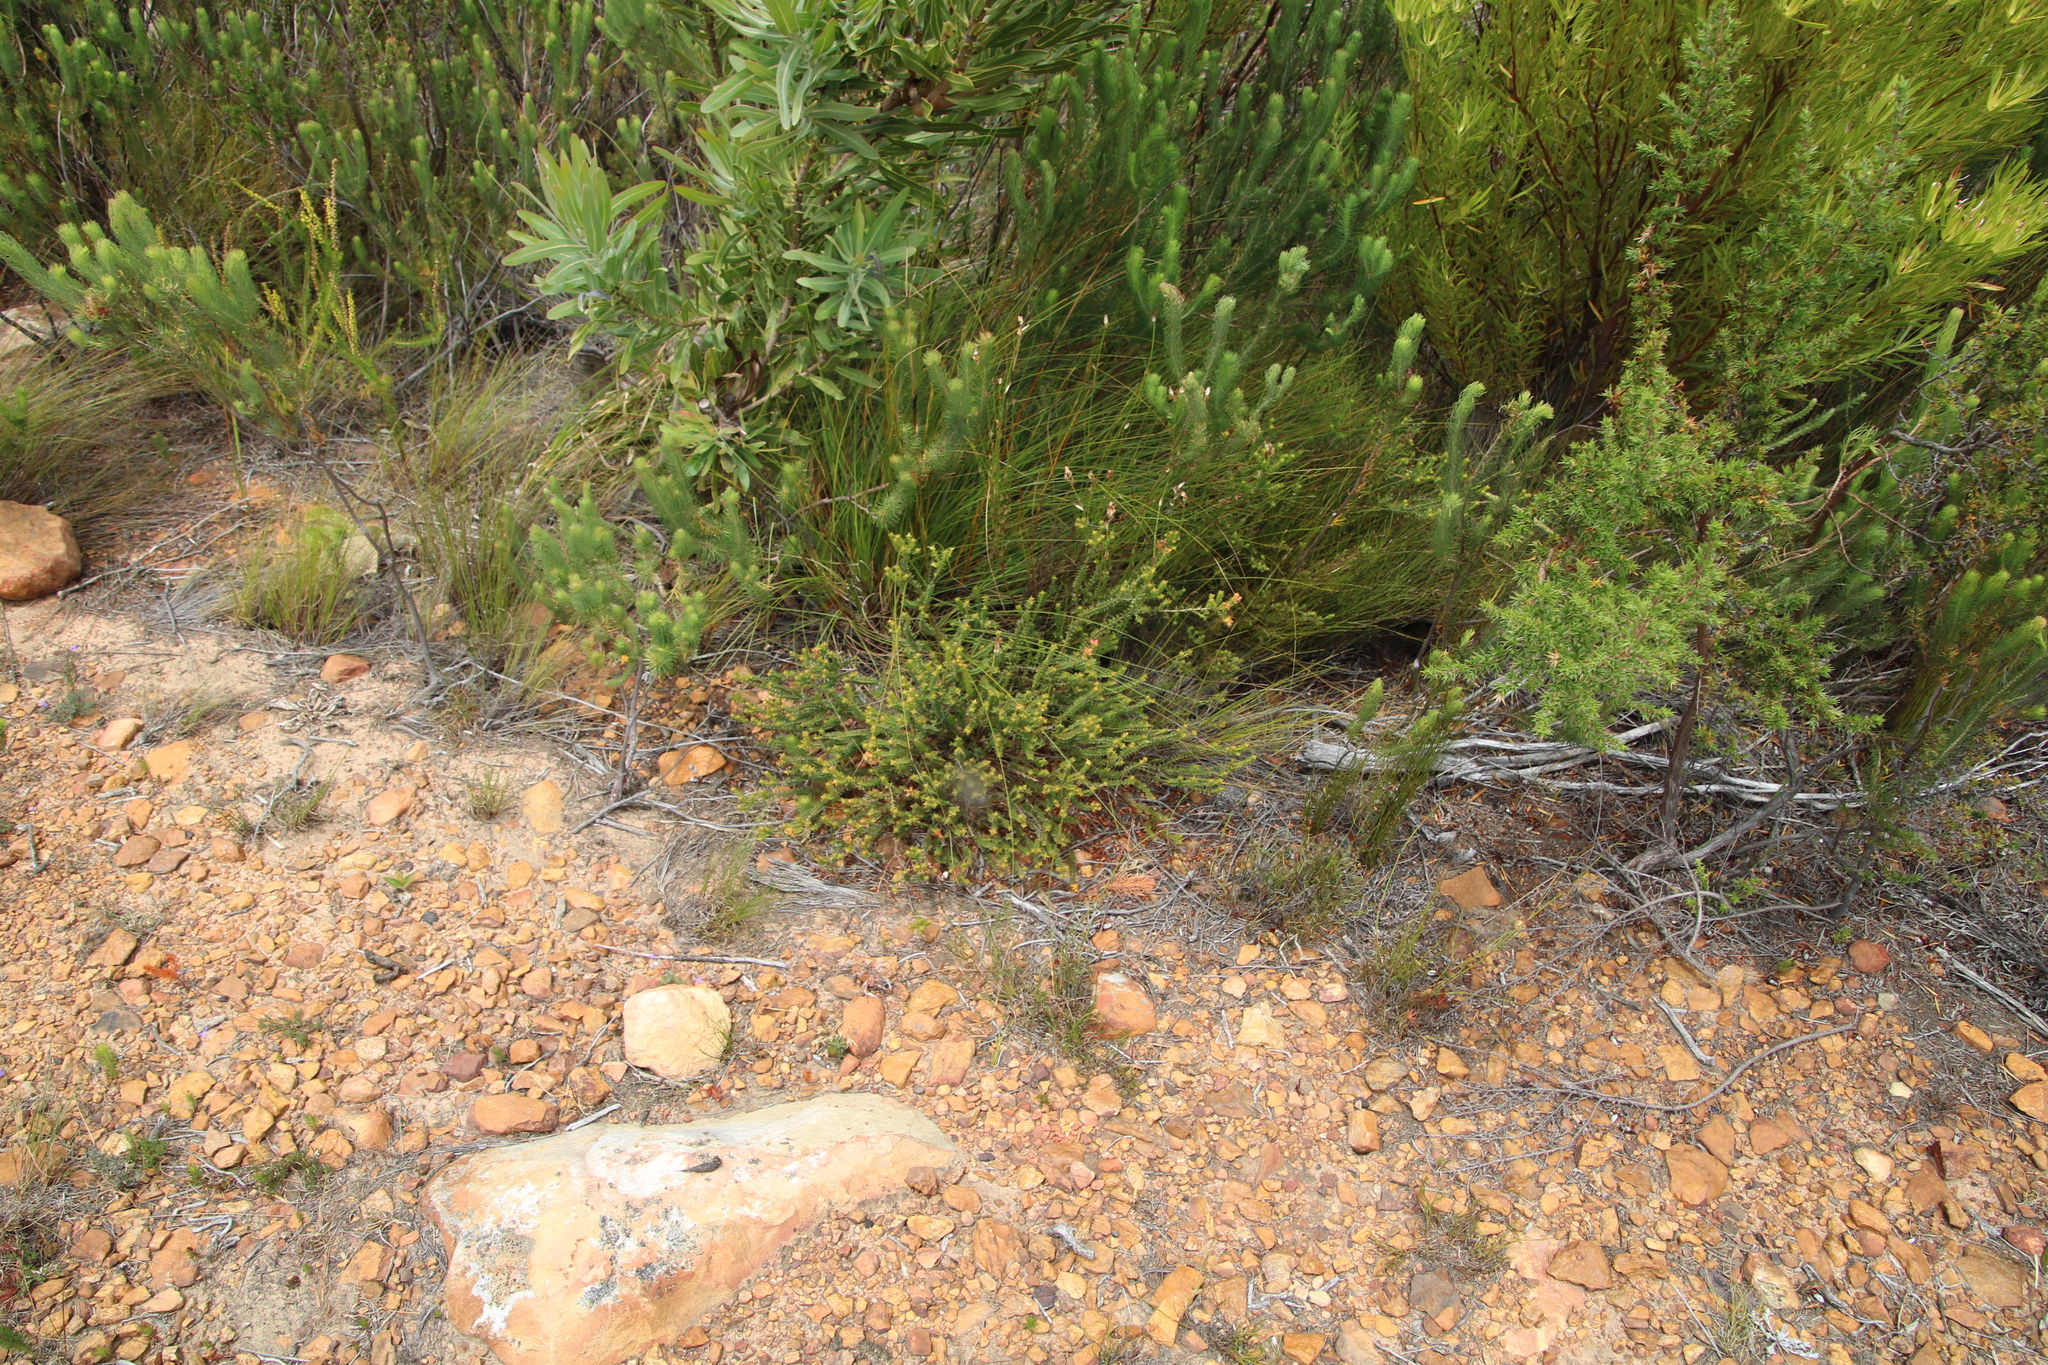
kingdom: Plantae
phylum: Tracheophyta
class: Magnoliopsida
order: Myrtales
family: Penaeaceae
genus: Penaea
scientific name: Penaea mucronata
